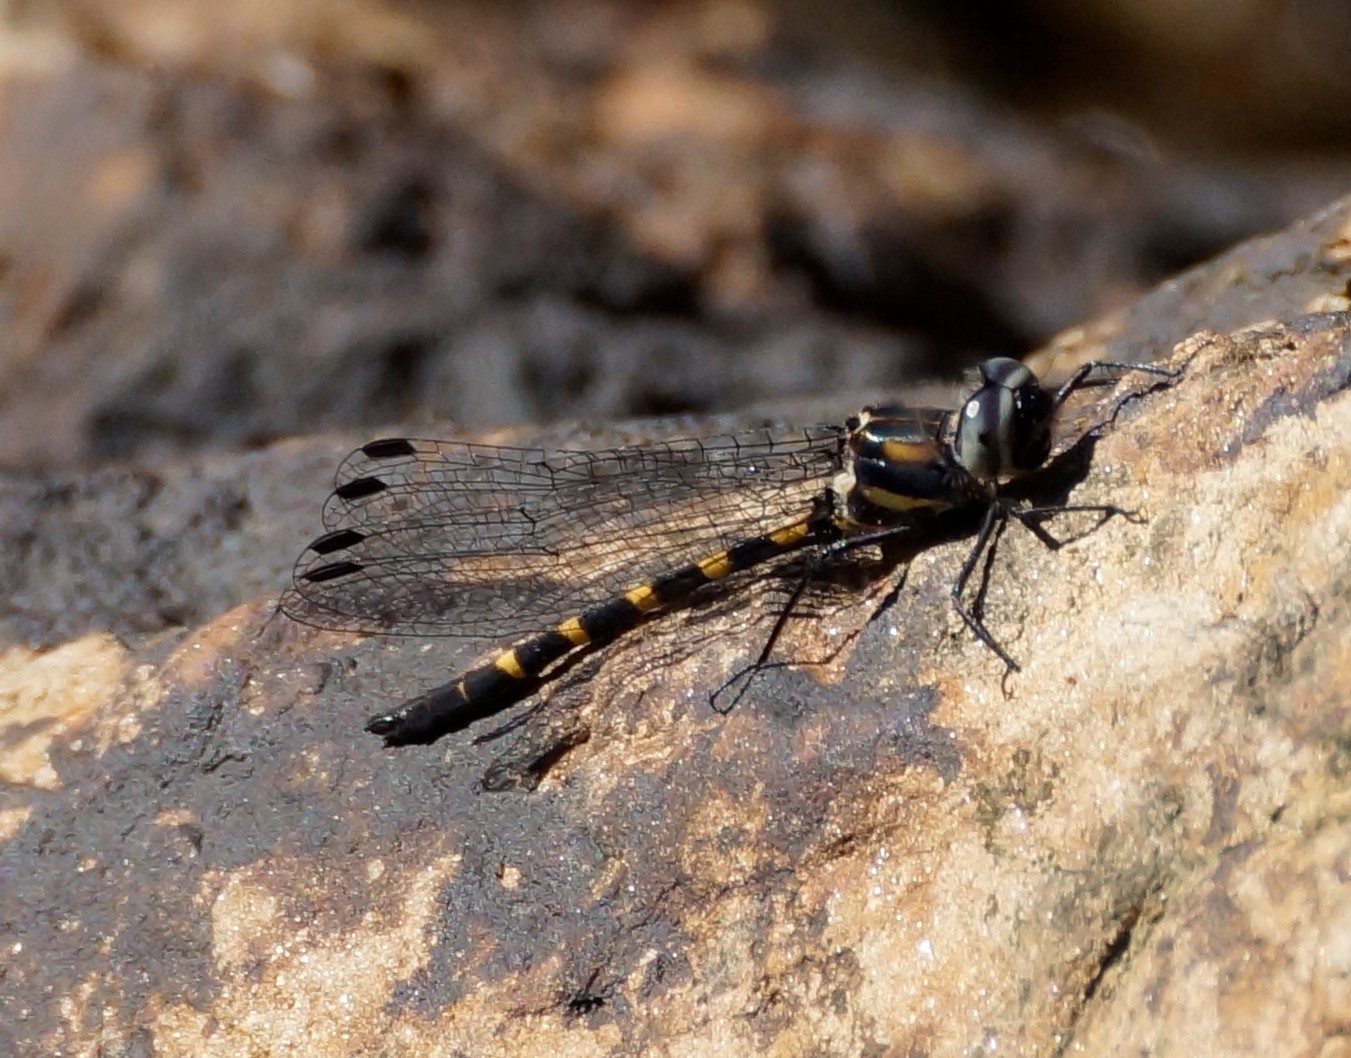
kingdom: Animalia
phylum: Arthropoda
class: Insecta
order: Odonata
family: Corduliidae
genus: Cordulephya
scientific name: Cordulephya pygmaea
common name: Common shutwing
